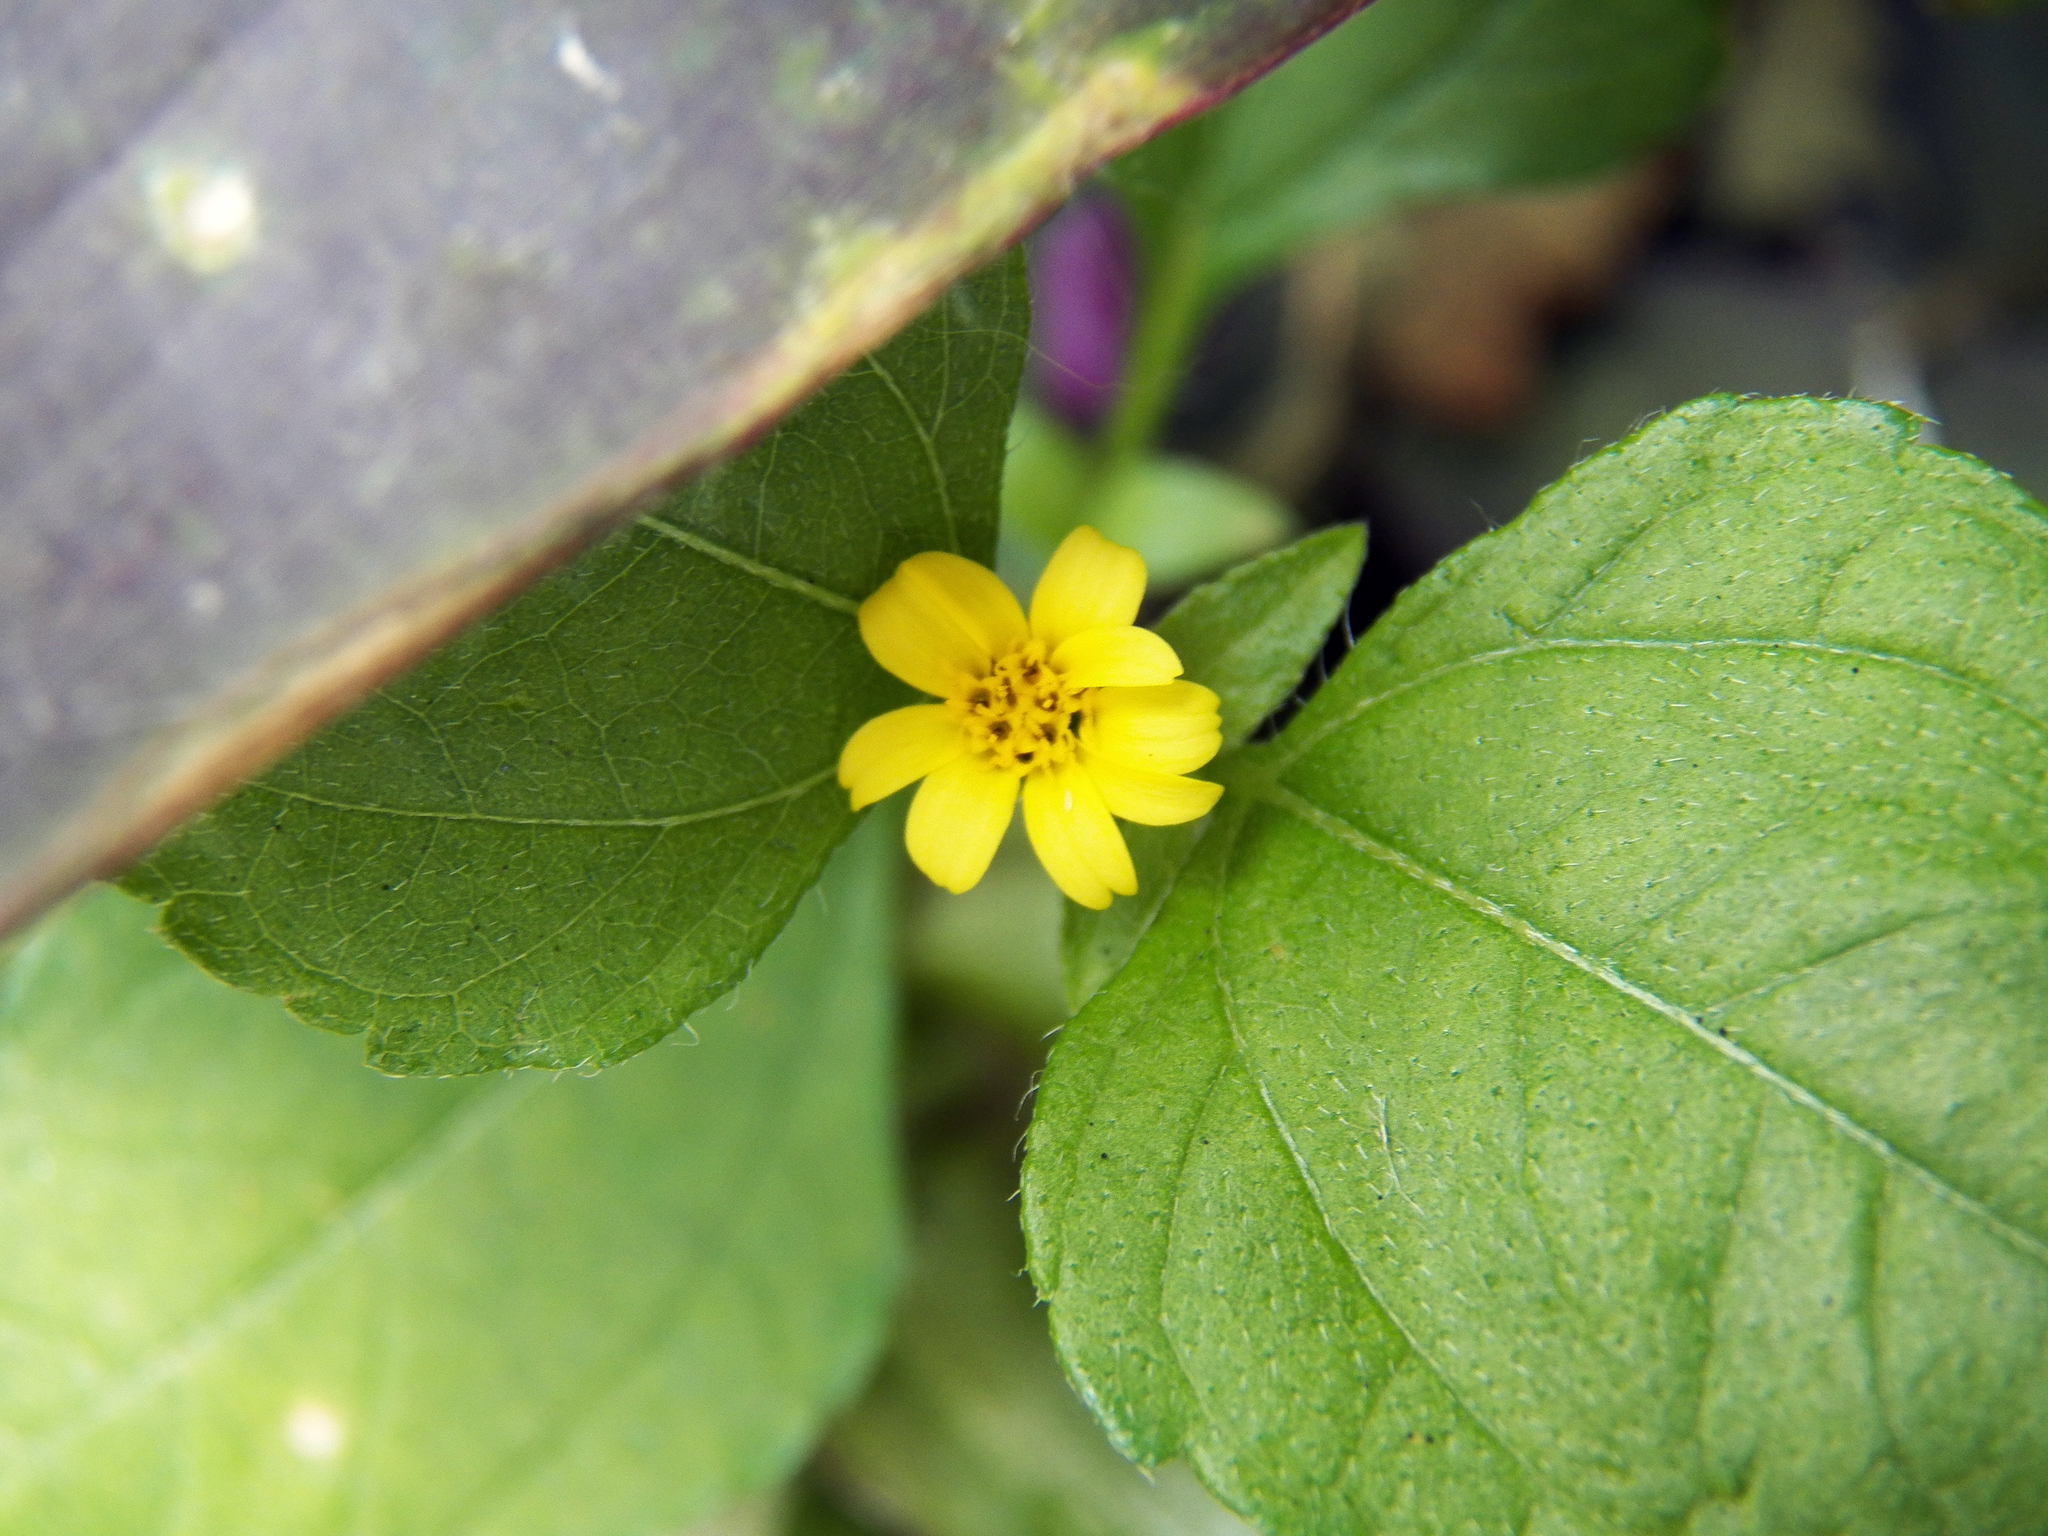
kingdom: Plantae
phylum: Tracheophyta
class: Magnoliopsida
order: Asterales
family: Asteraceae
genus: Calyptocarpus
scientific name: Calyptocarpus vialis
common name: Straggler daisy
